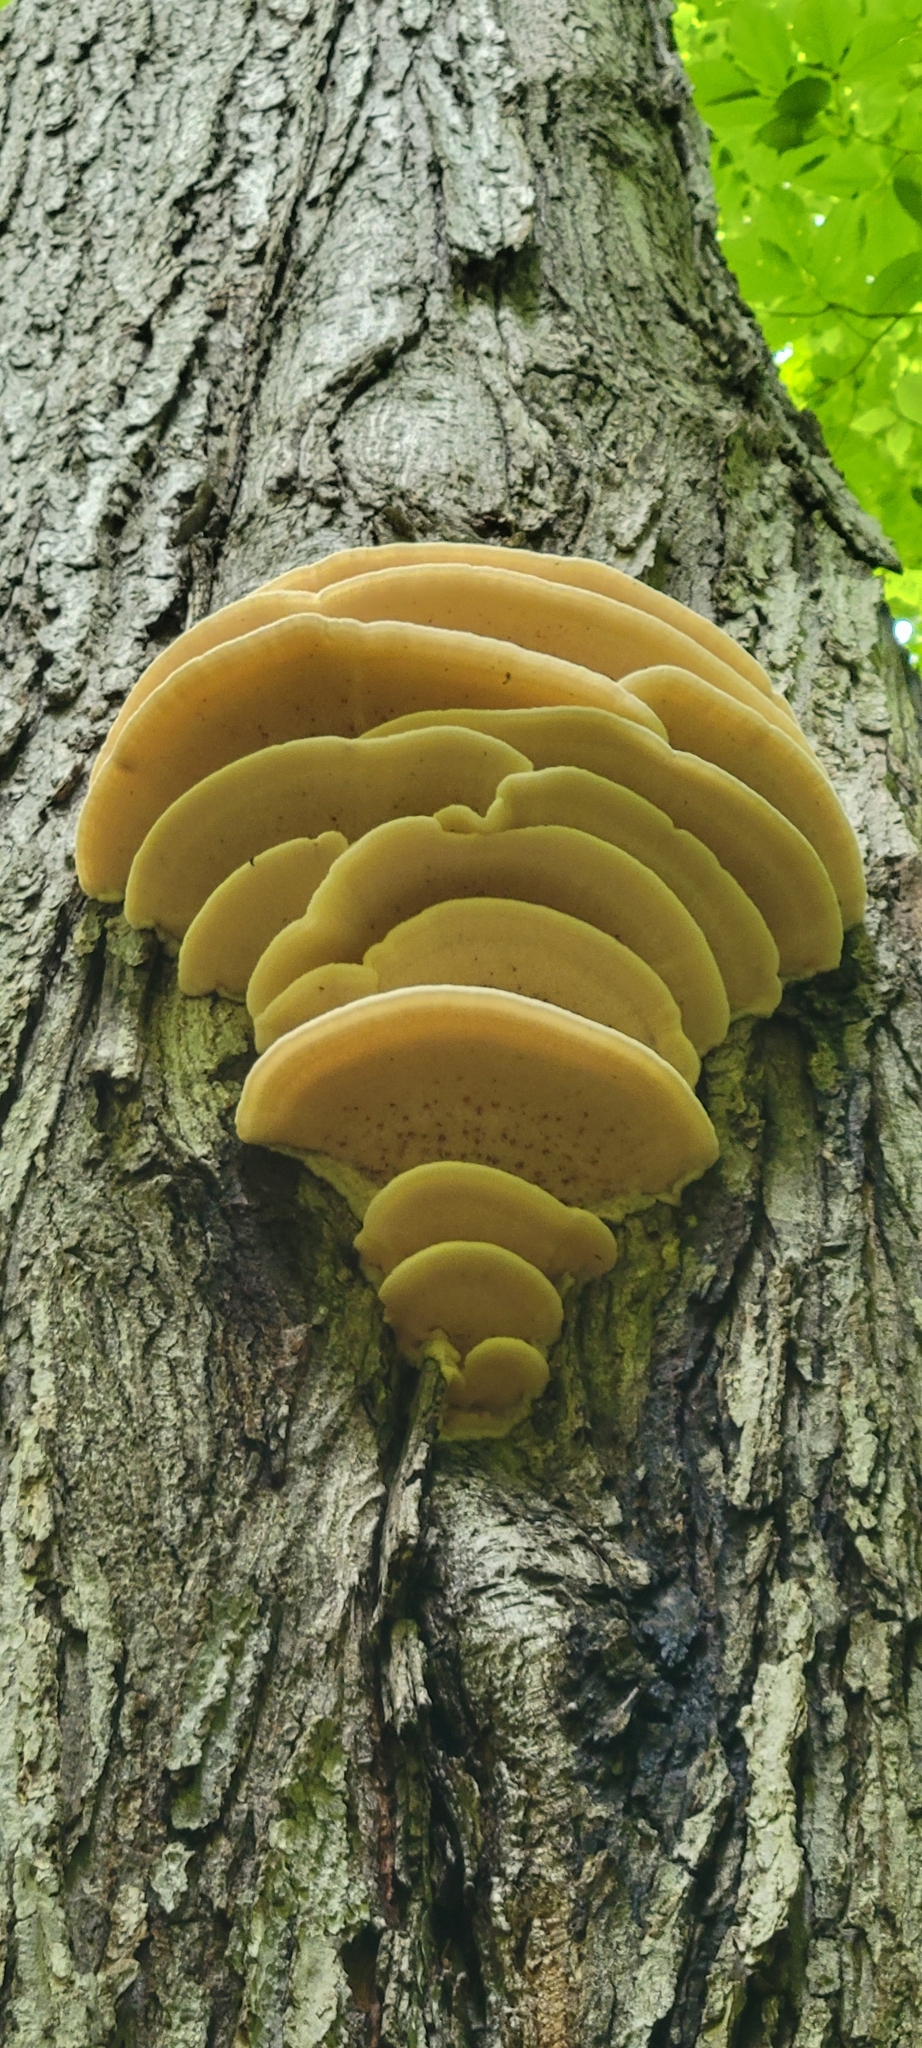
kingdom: Fungi
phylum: Basidiomycota
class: Agaricomycetes
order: Polyporales
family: Meruliaceae
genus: Climacodon
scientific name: Climacodon septentrionalis
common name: Northern tooth
